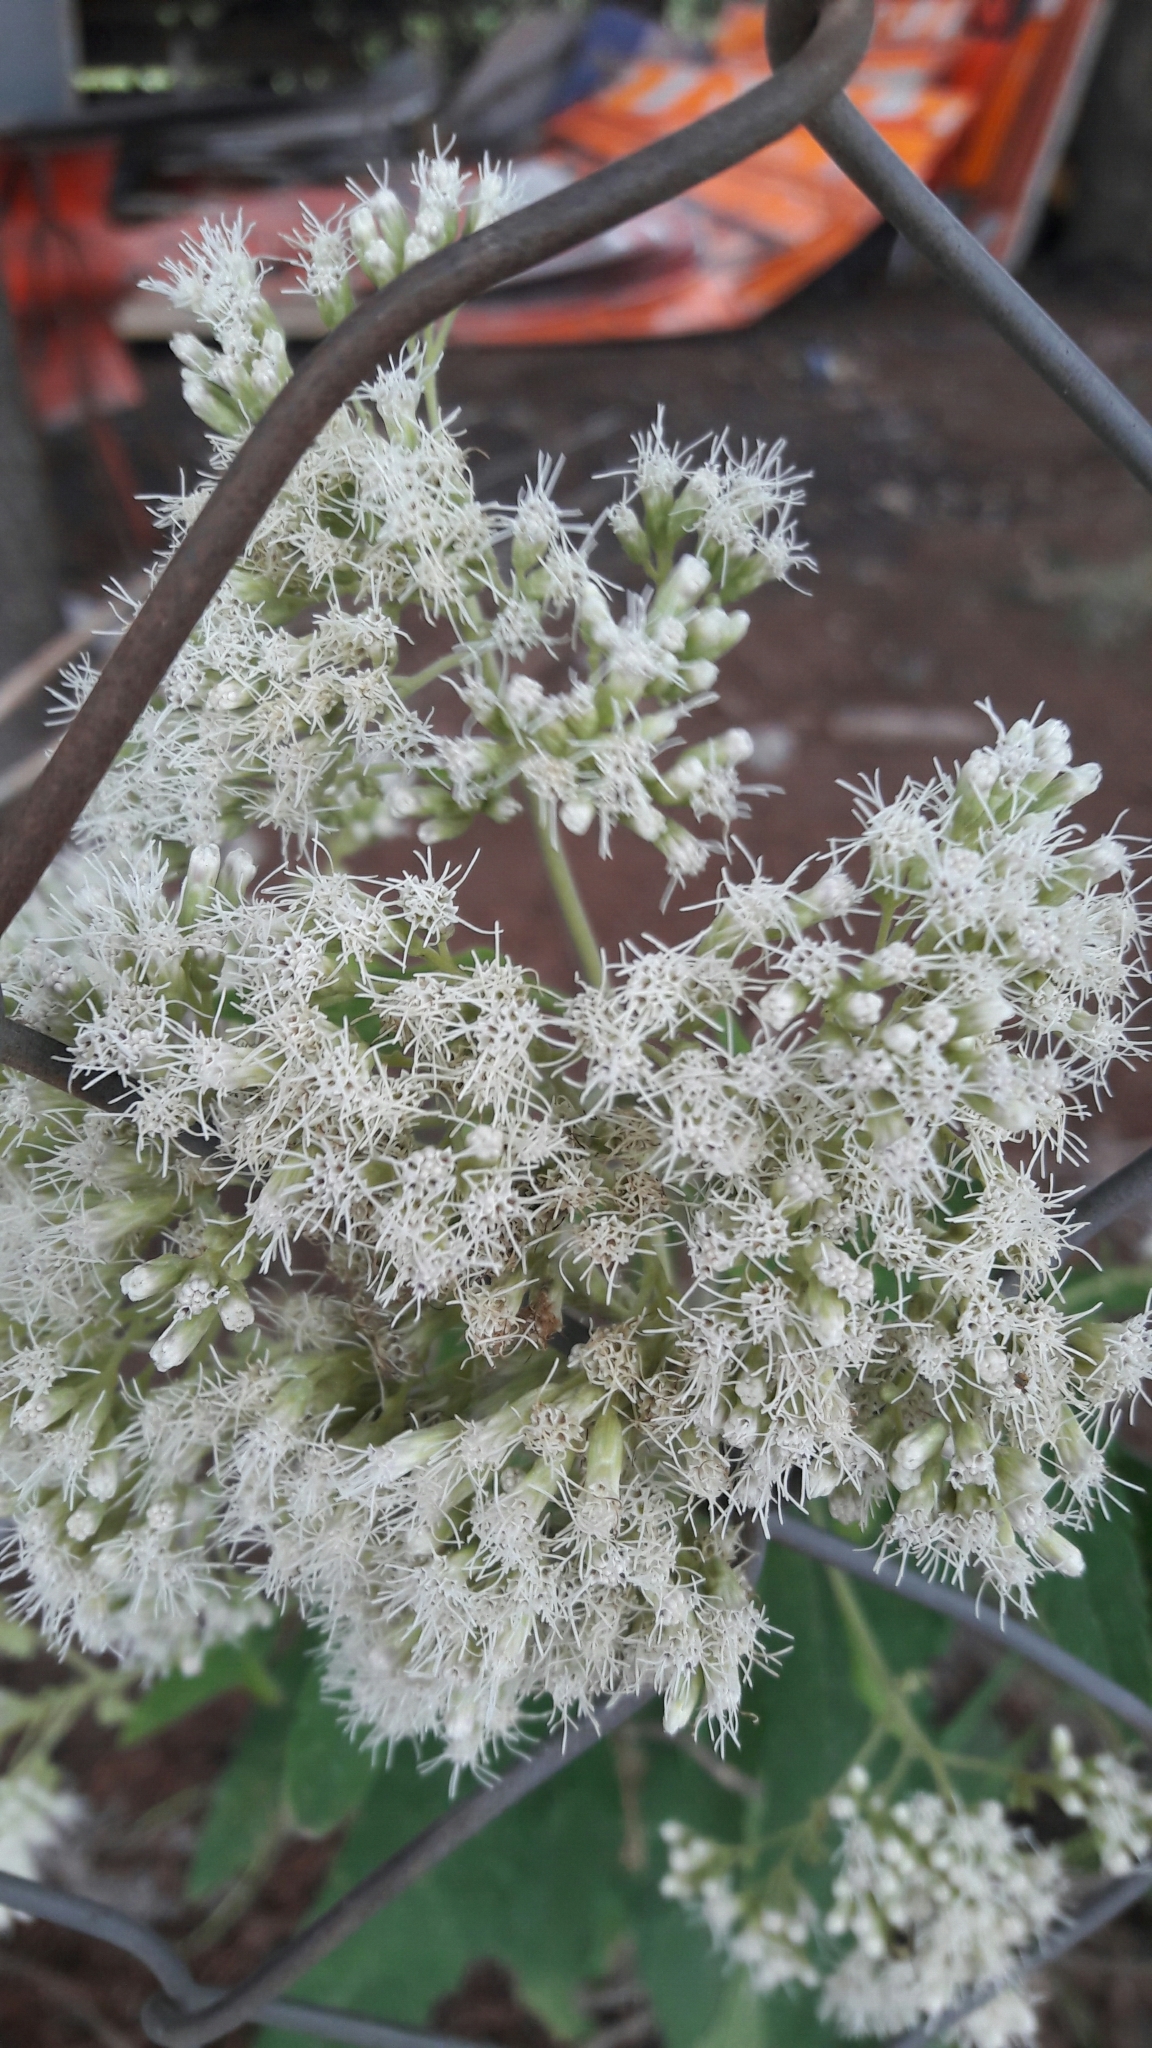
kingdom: Plantae
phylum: Tracheophyta
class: Magnoliopsida
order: Asterales
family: Asteraceae
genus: Austroeupatorium
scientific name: Austroeupatorium inulifolium
